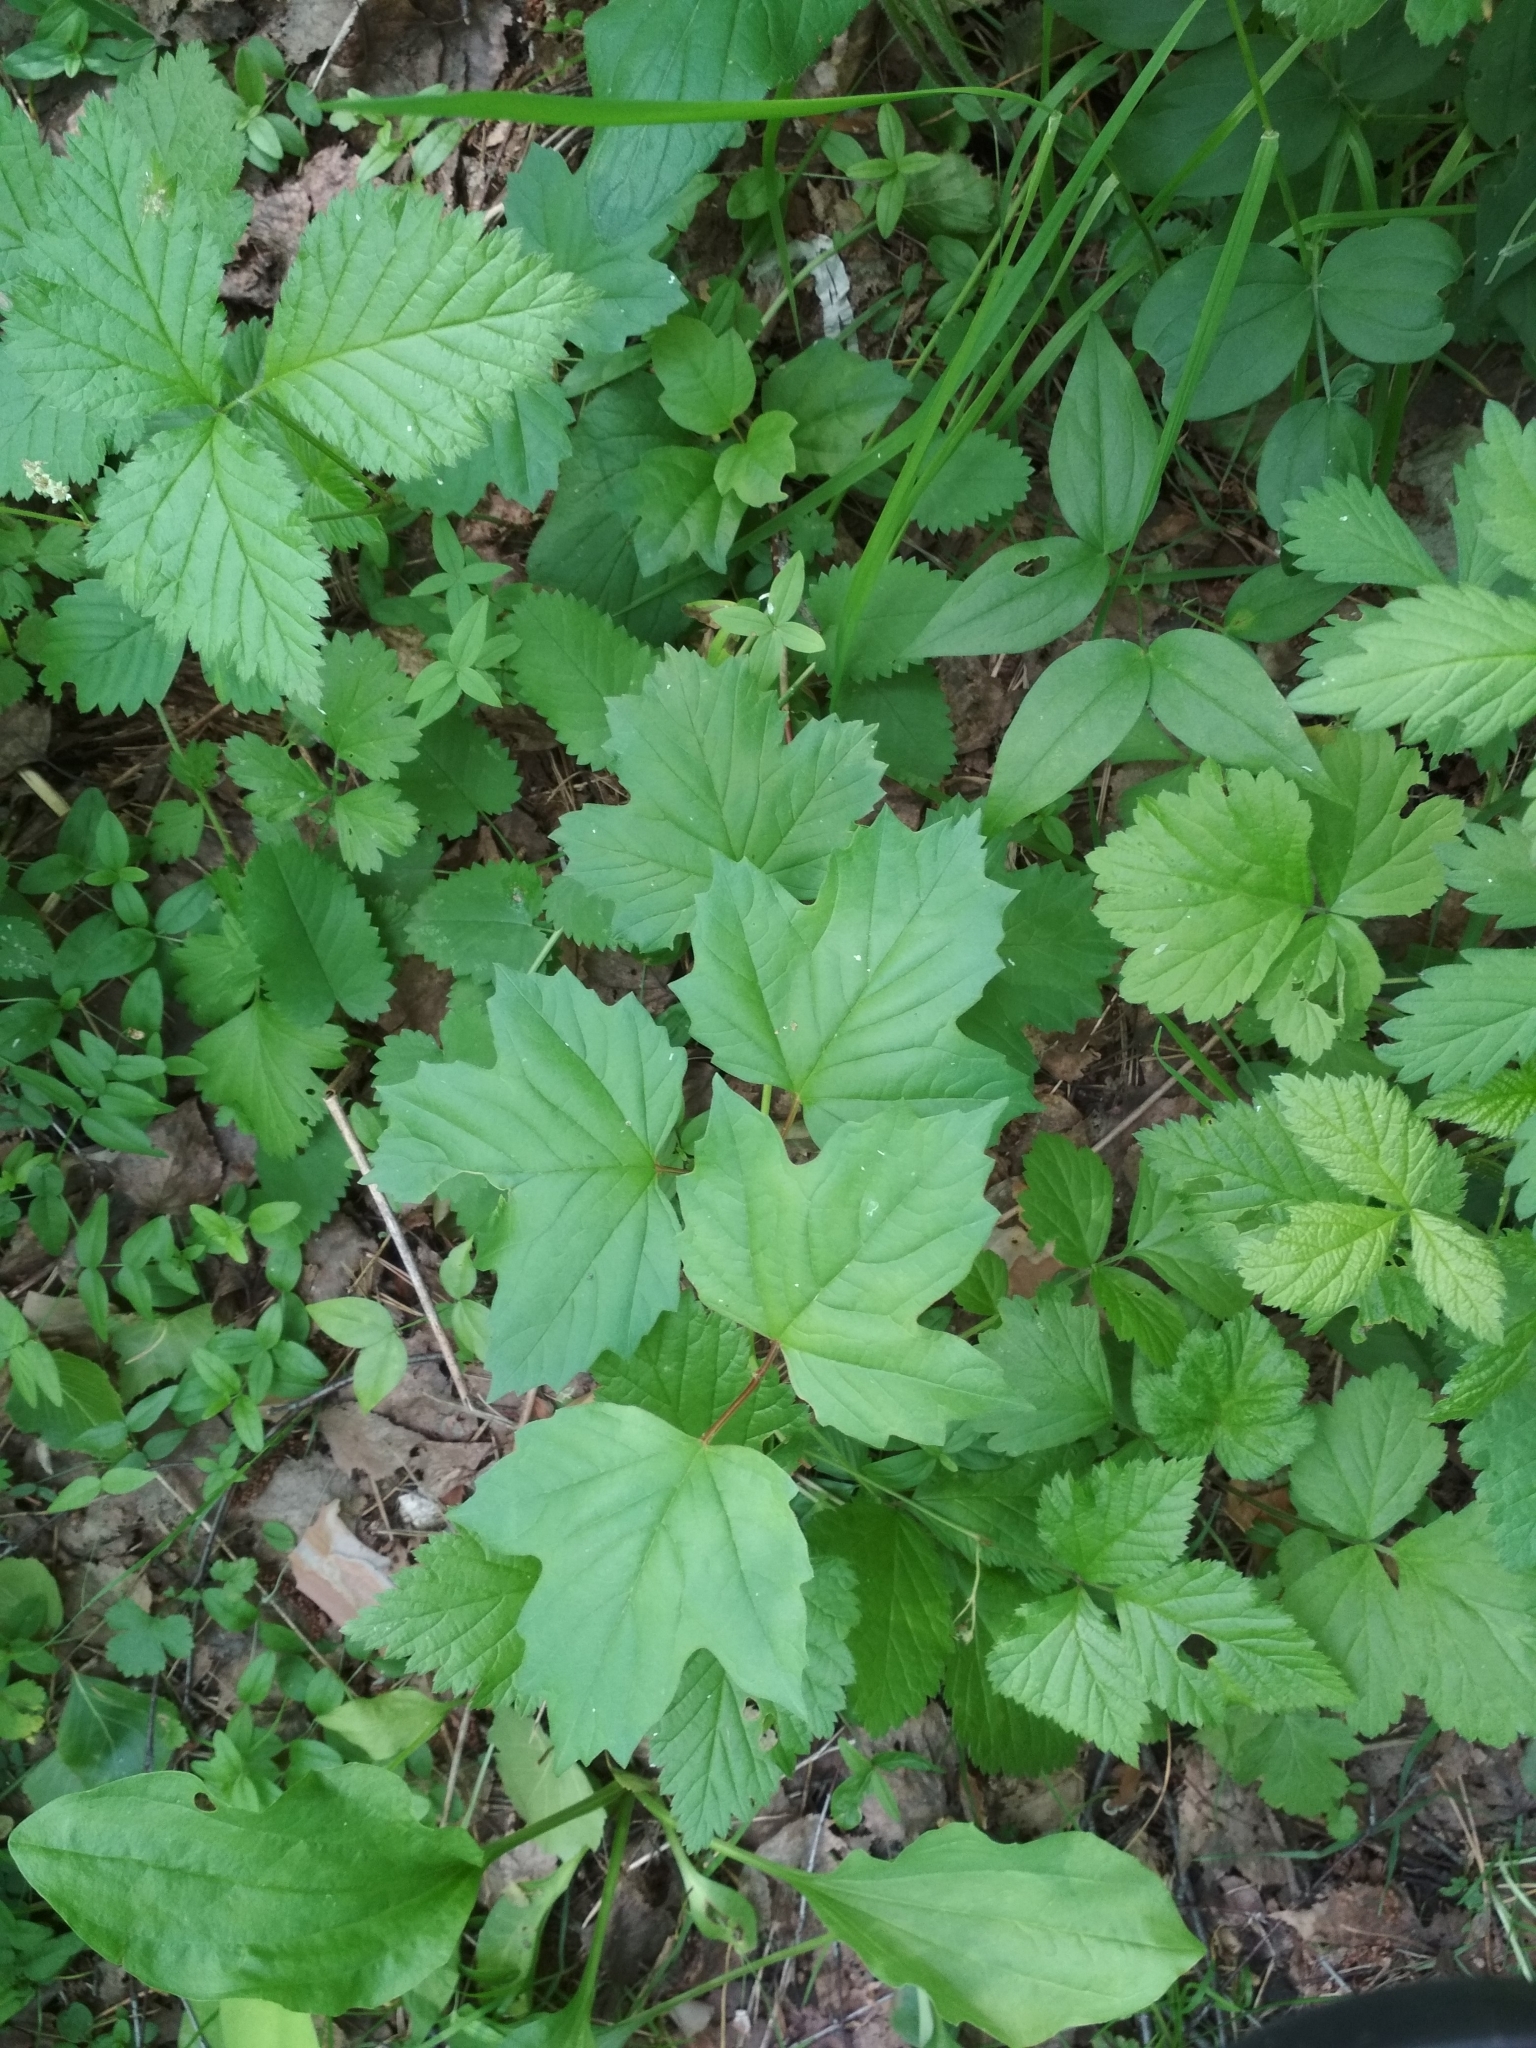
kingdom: Plantae
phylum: Tracheophyta
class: Magnoliopsida
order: Dipsacales
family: Viburnaceae
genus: Viburnum
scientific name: Viburnum opulus
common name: Guelder-rose
